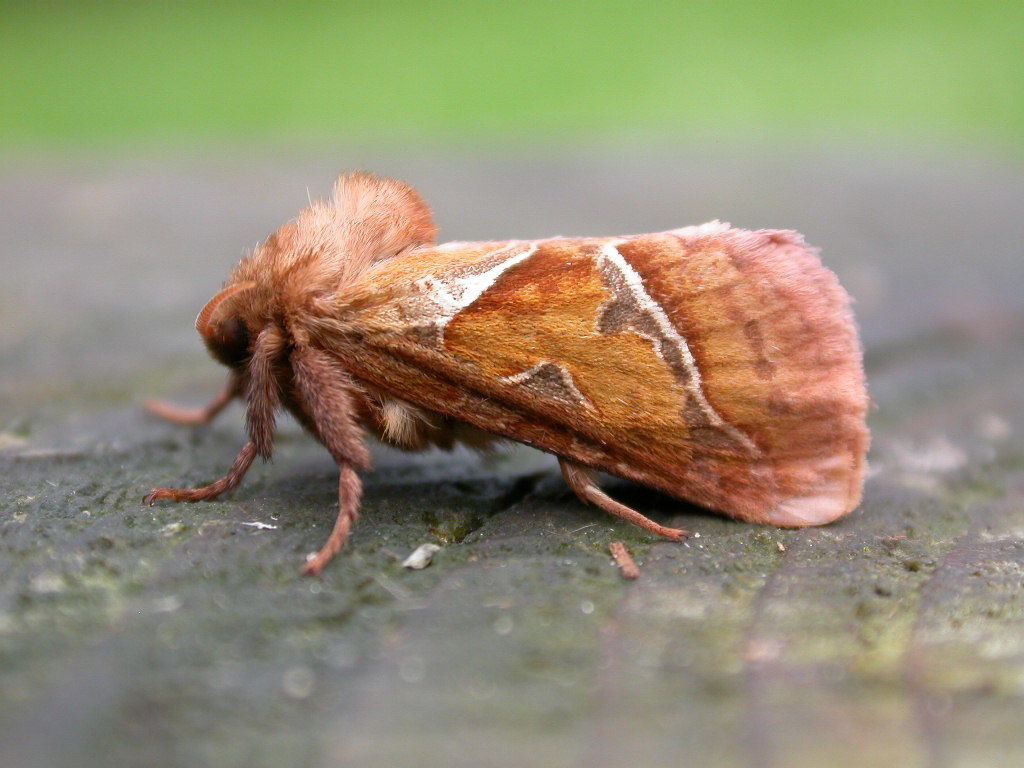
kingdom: Animalia
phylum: Arthropoda
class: Insecta
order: Lepidoptera
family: Hepialidae
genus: Triodia
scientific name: Triodia sylvina
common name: Orange swift
